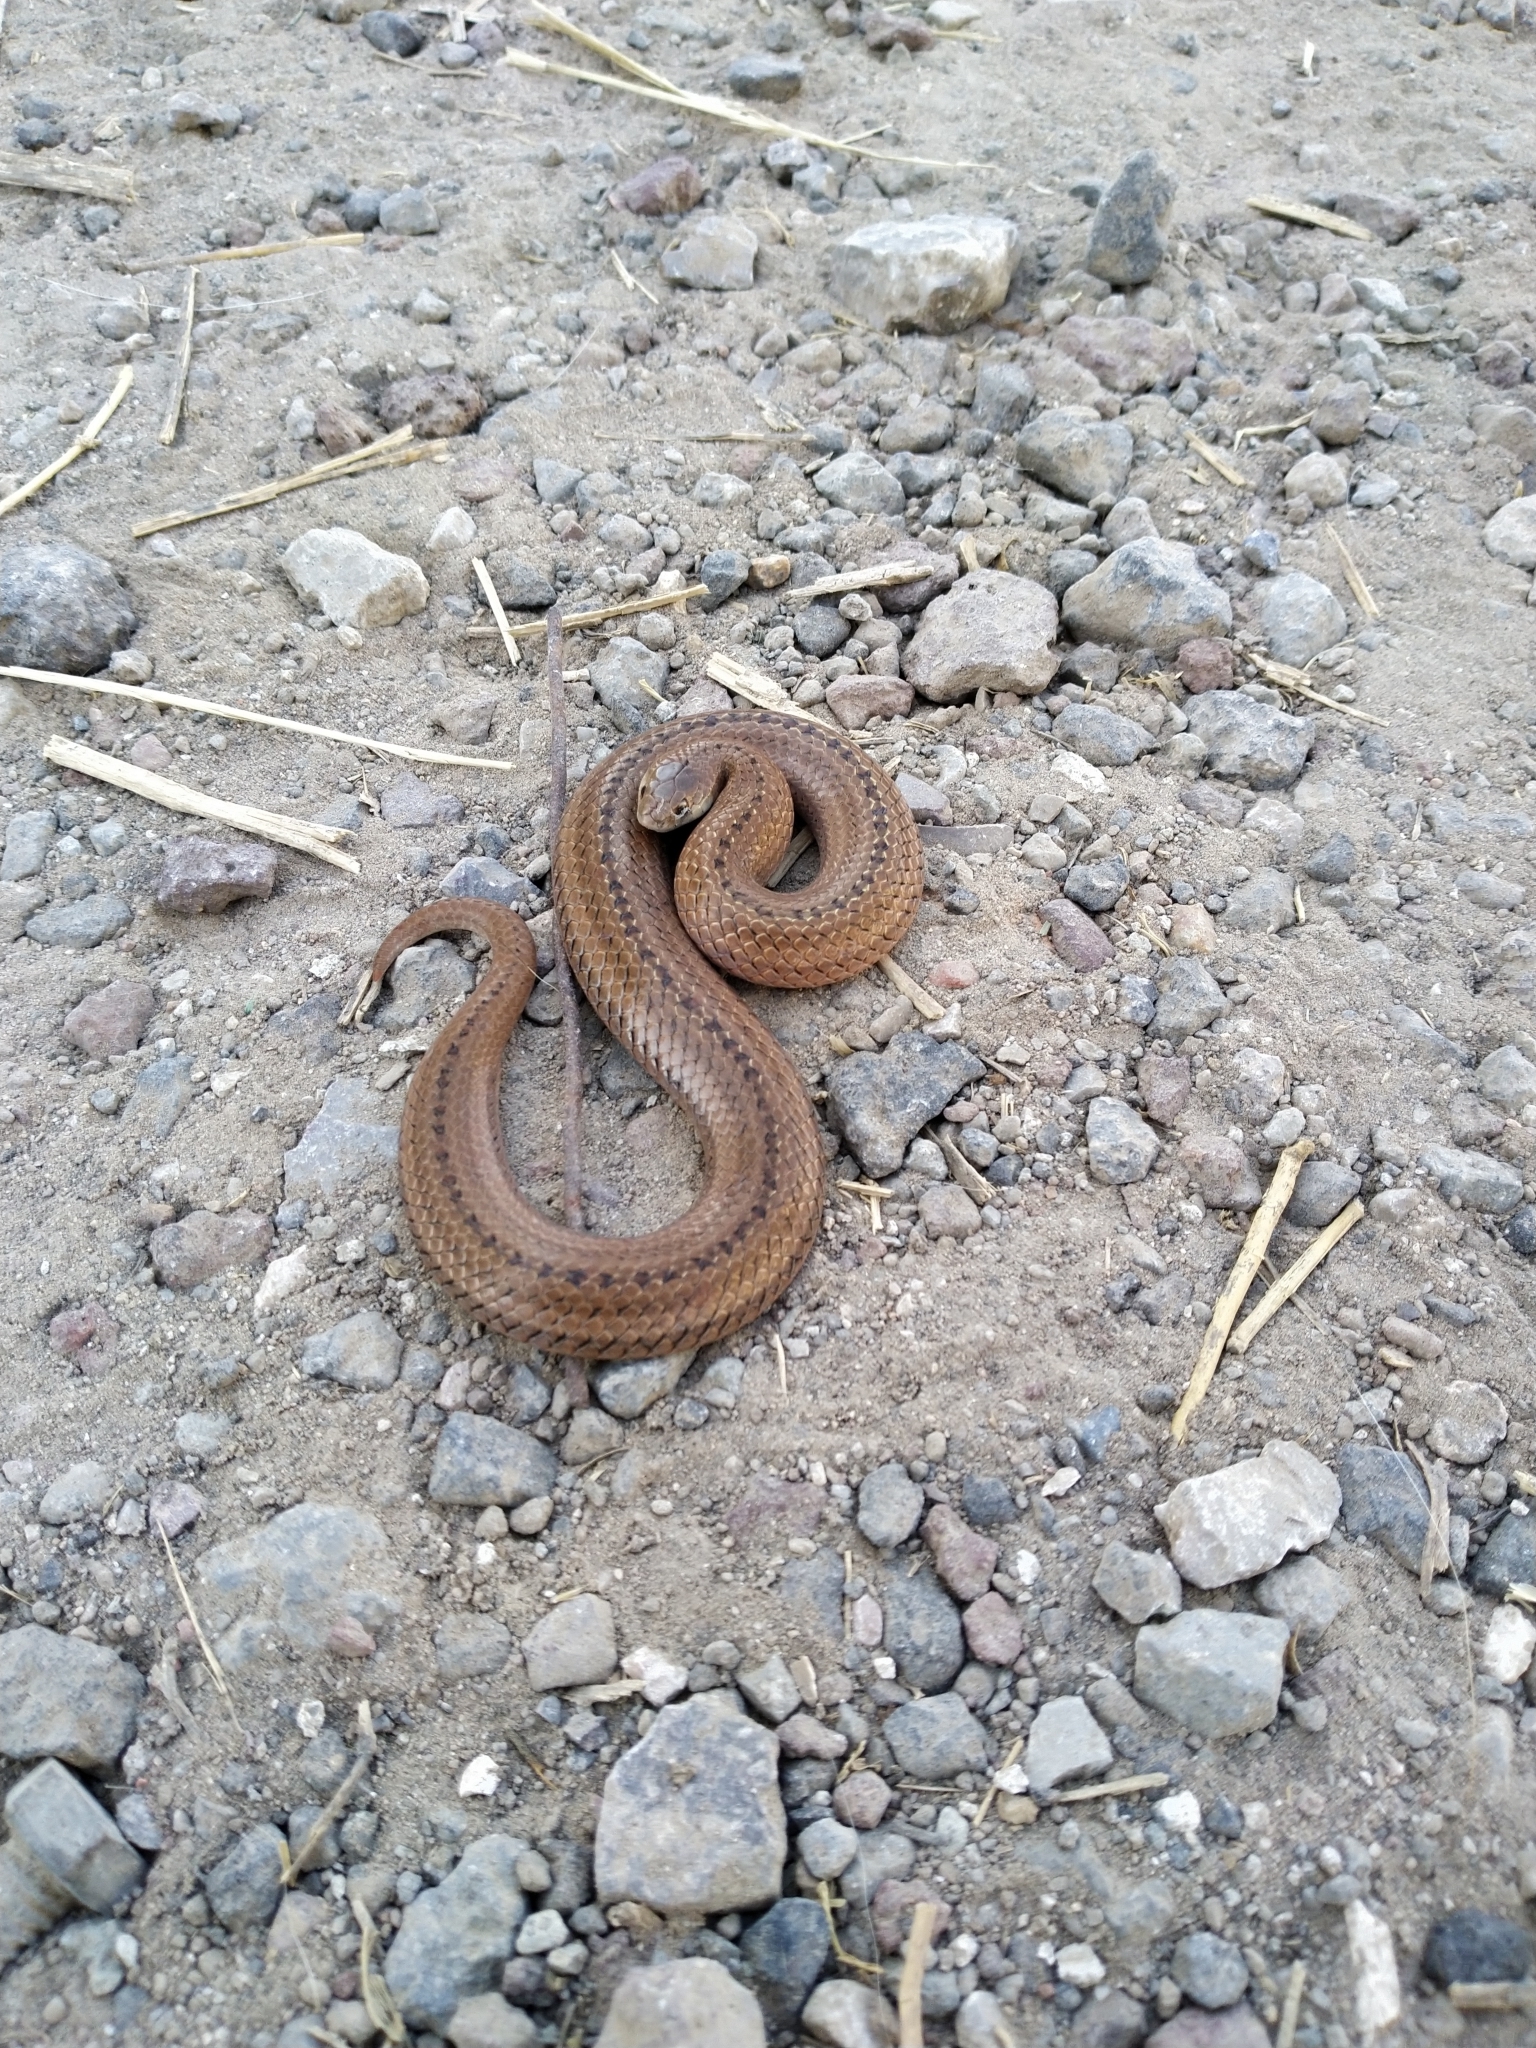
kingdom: Animalia
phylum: Chordata
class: Squamata
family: Colubridae
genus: Conopsis
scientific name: Conopsis lineata
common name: Lined tolucan earthsnake
